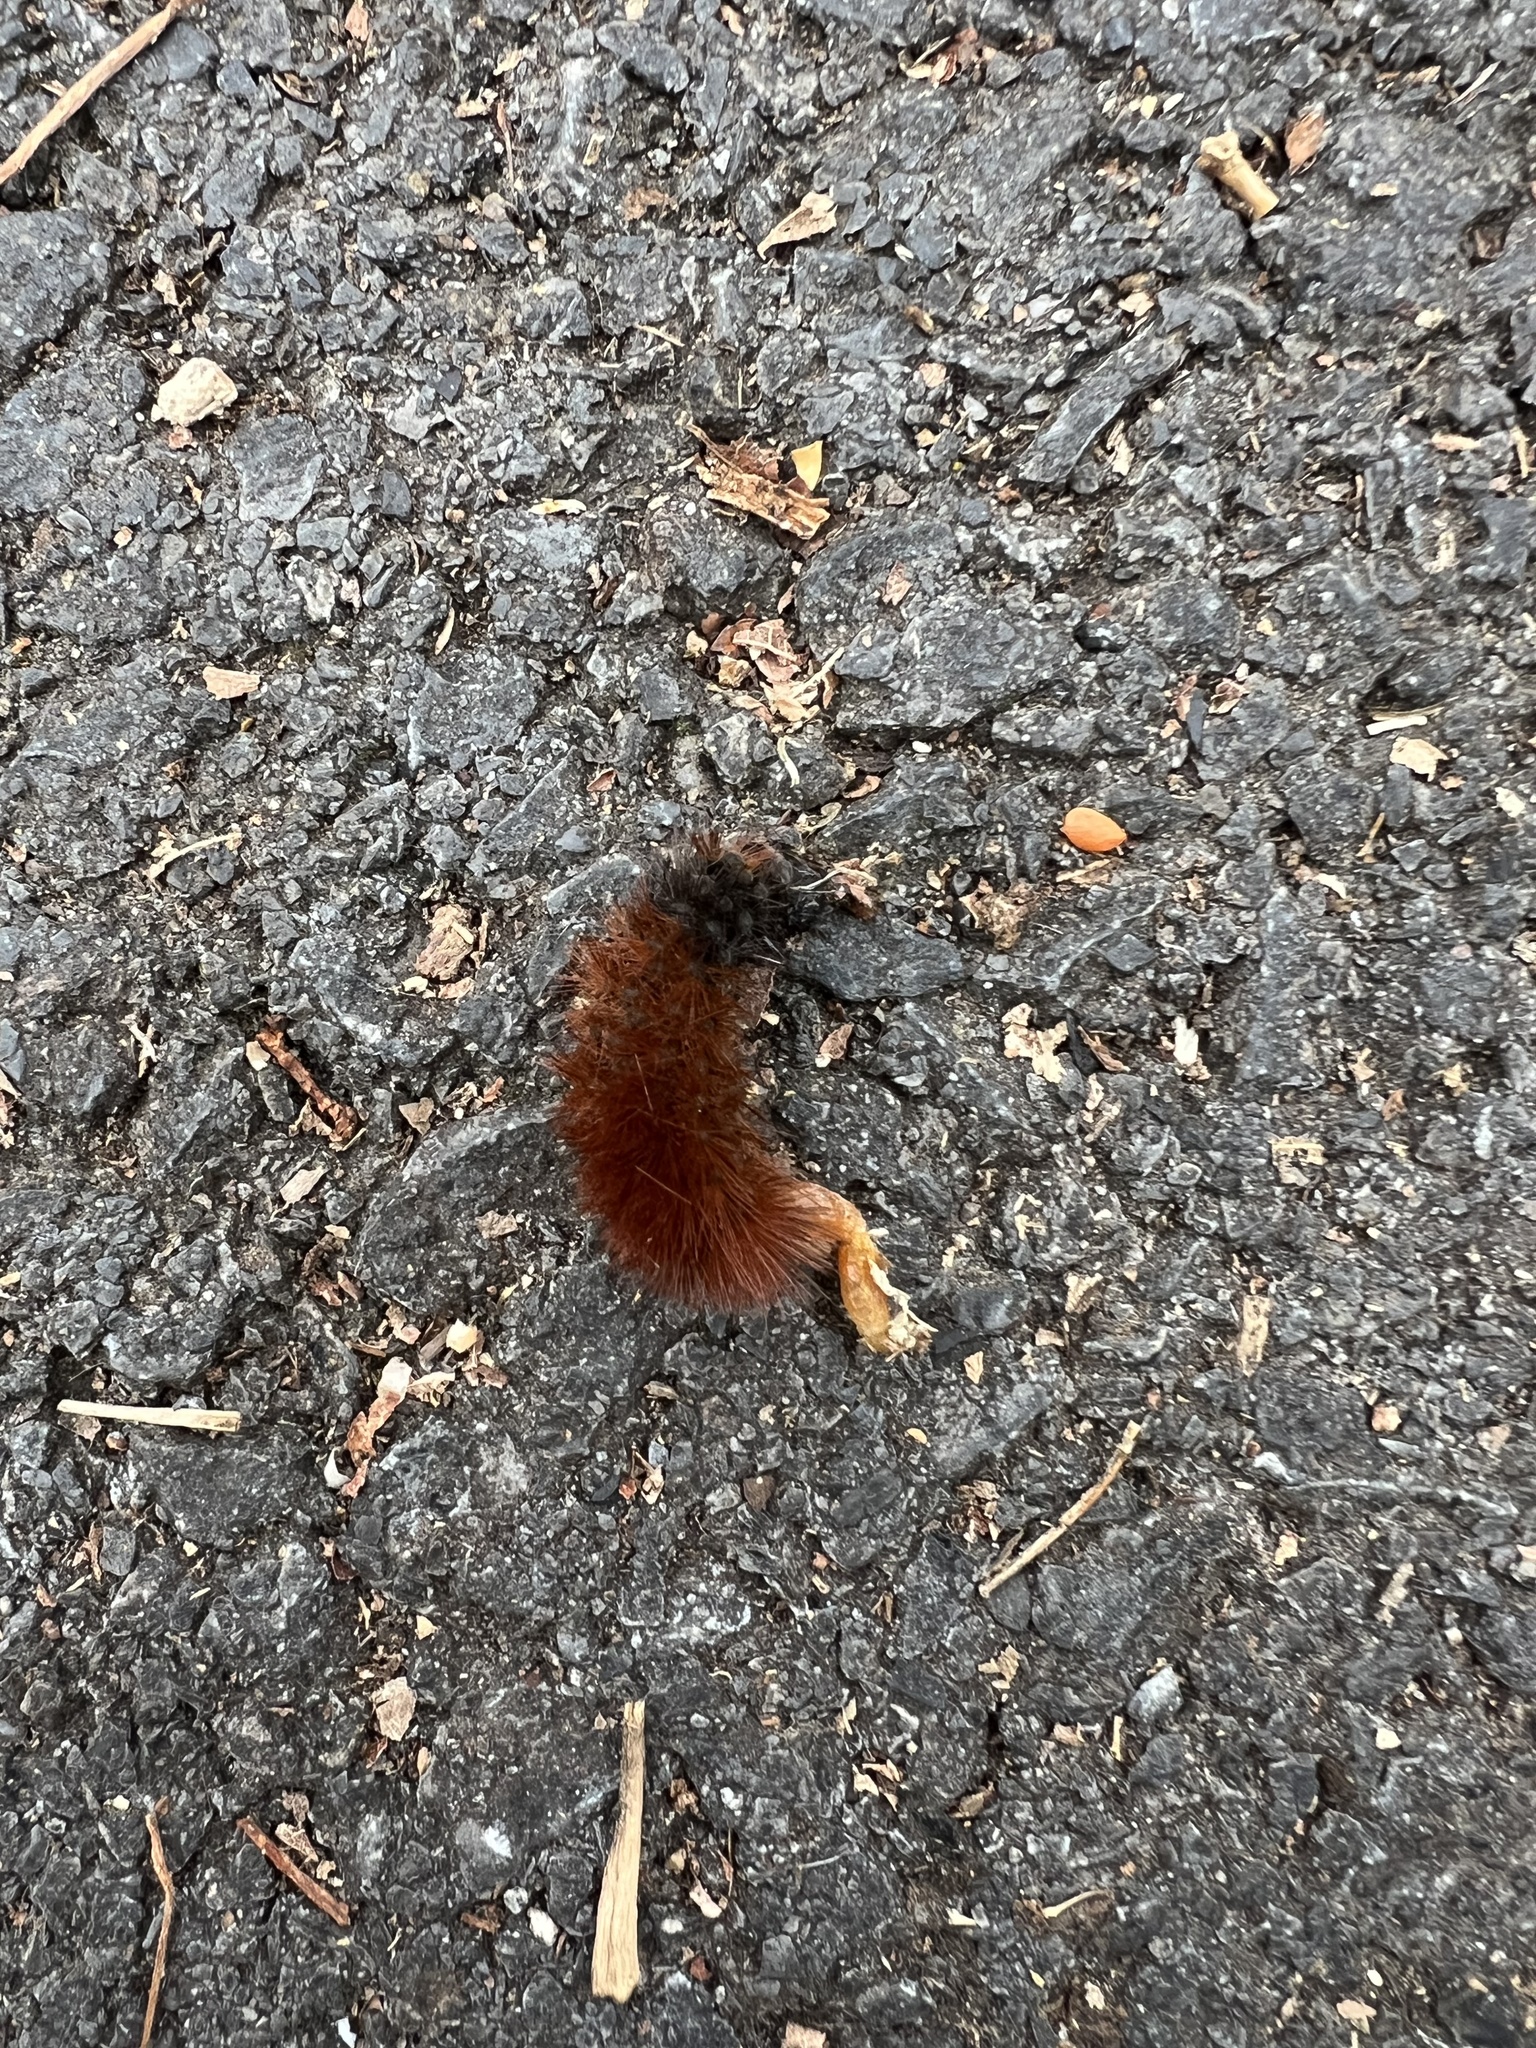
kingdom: Animalia
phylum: Arthropoda
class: Insecta
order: Lepidoptera
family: Erebidae
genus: Pyrrharctia
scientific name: Pyrrharctia isabella
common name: Isabella tiger moth
